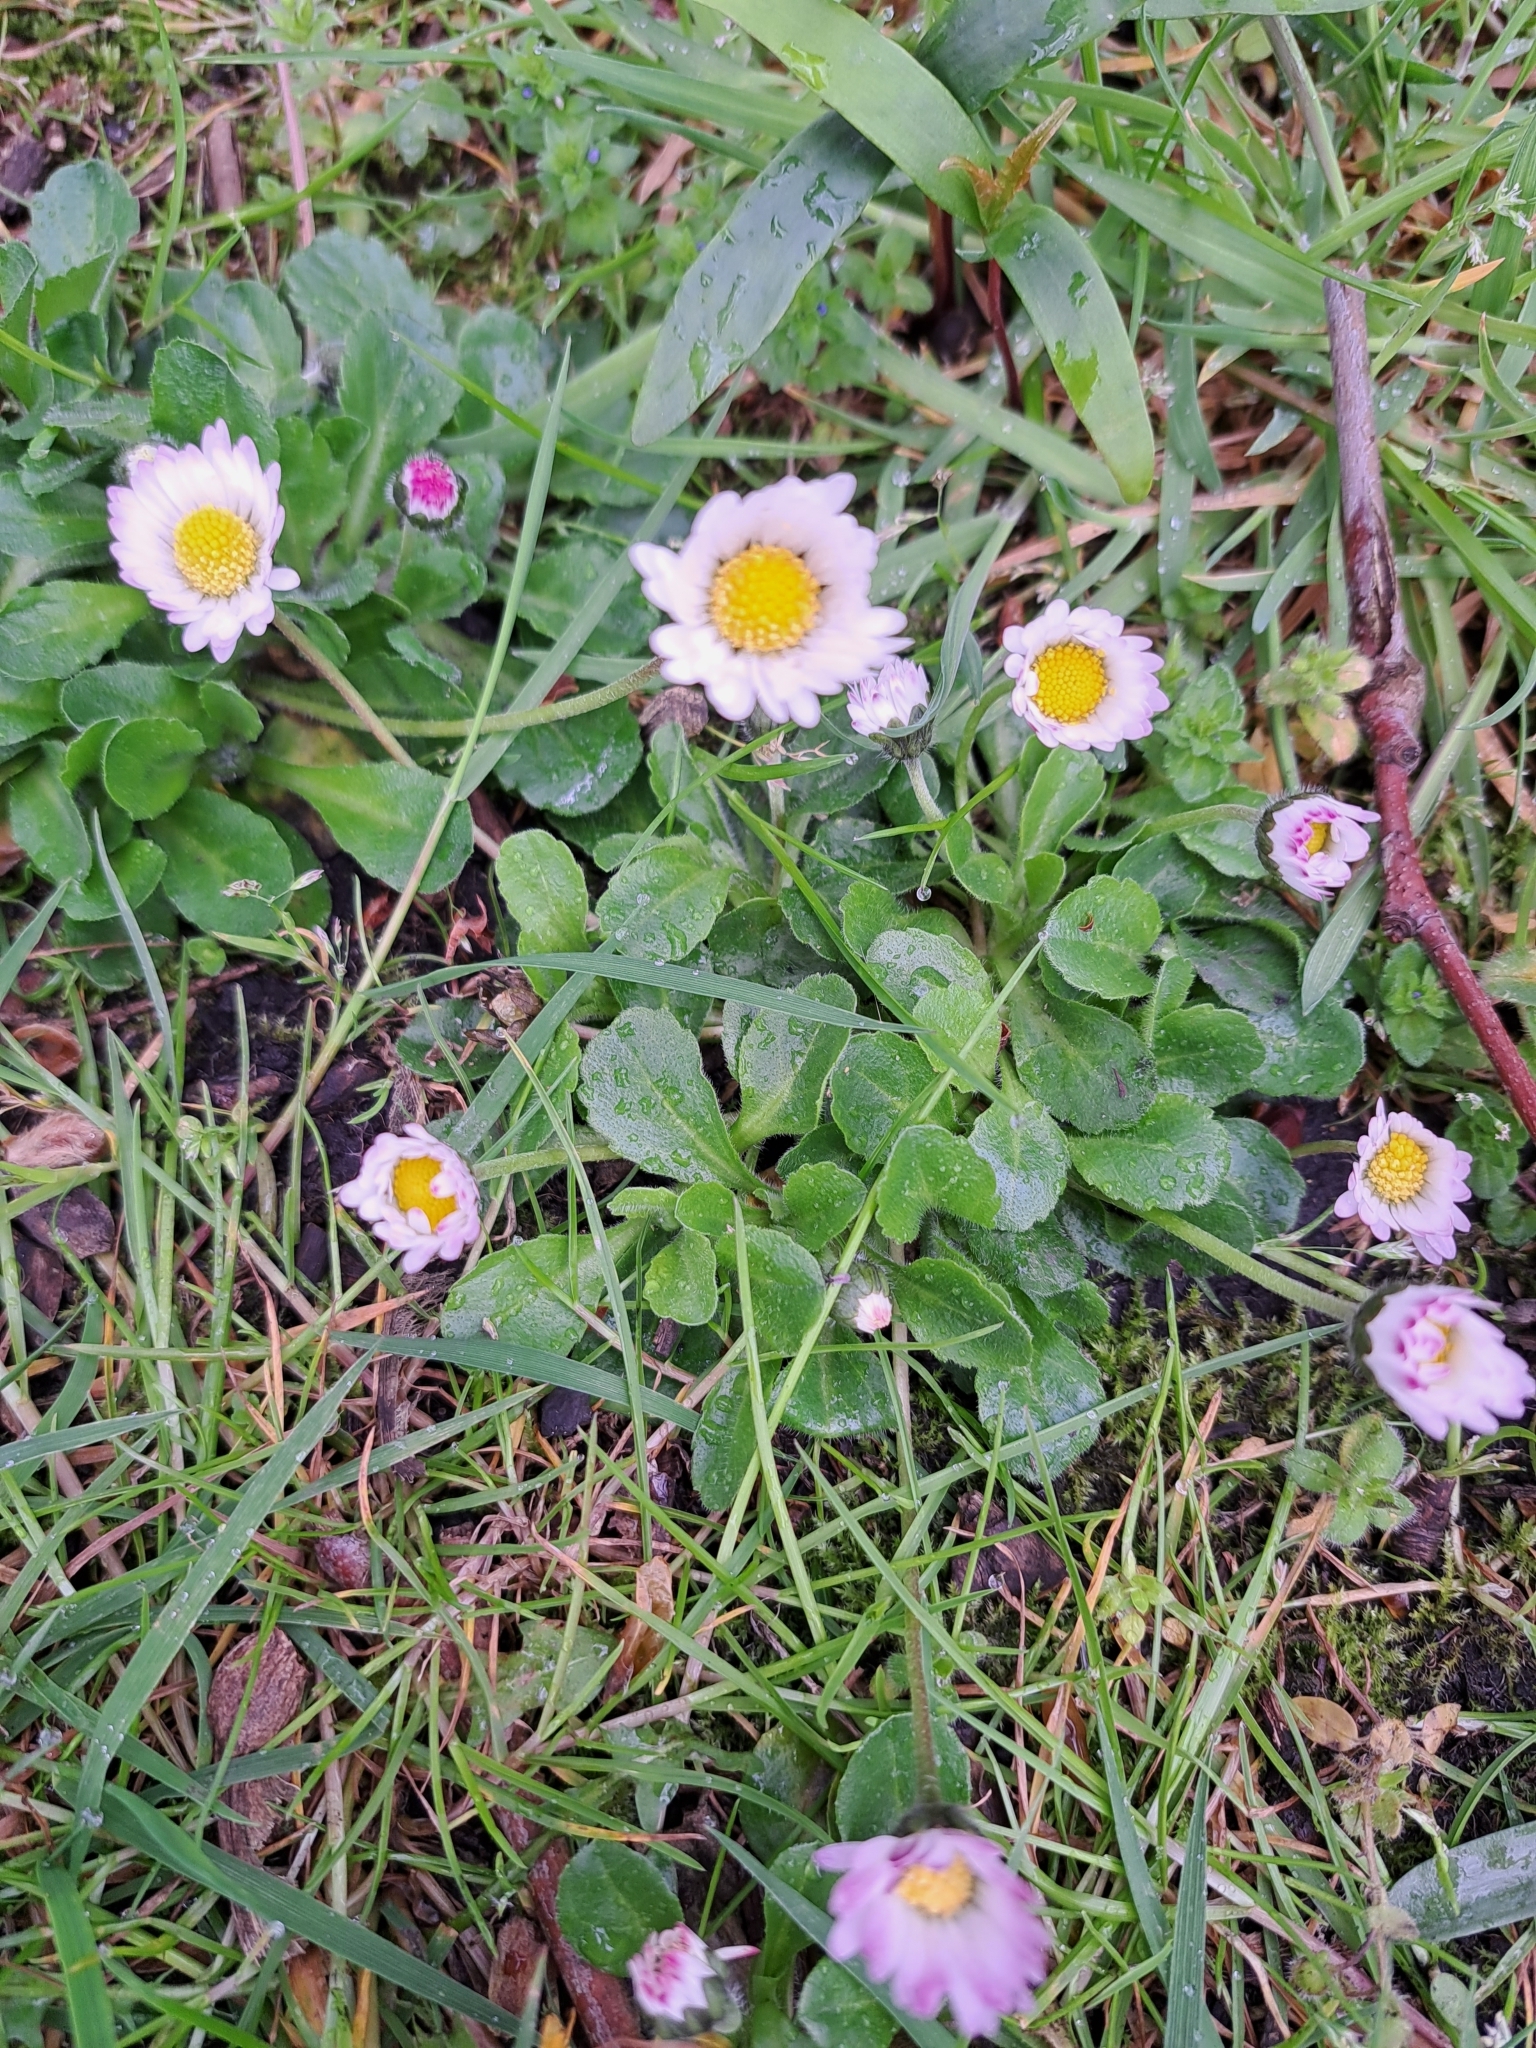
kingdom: Plantae
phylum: Tracheophyta
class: Magnoliopsida
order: Asterales
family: Asteraceae
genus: Bellis
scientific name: Bellis perennis
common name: Lawndaisy
